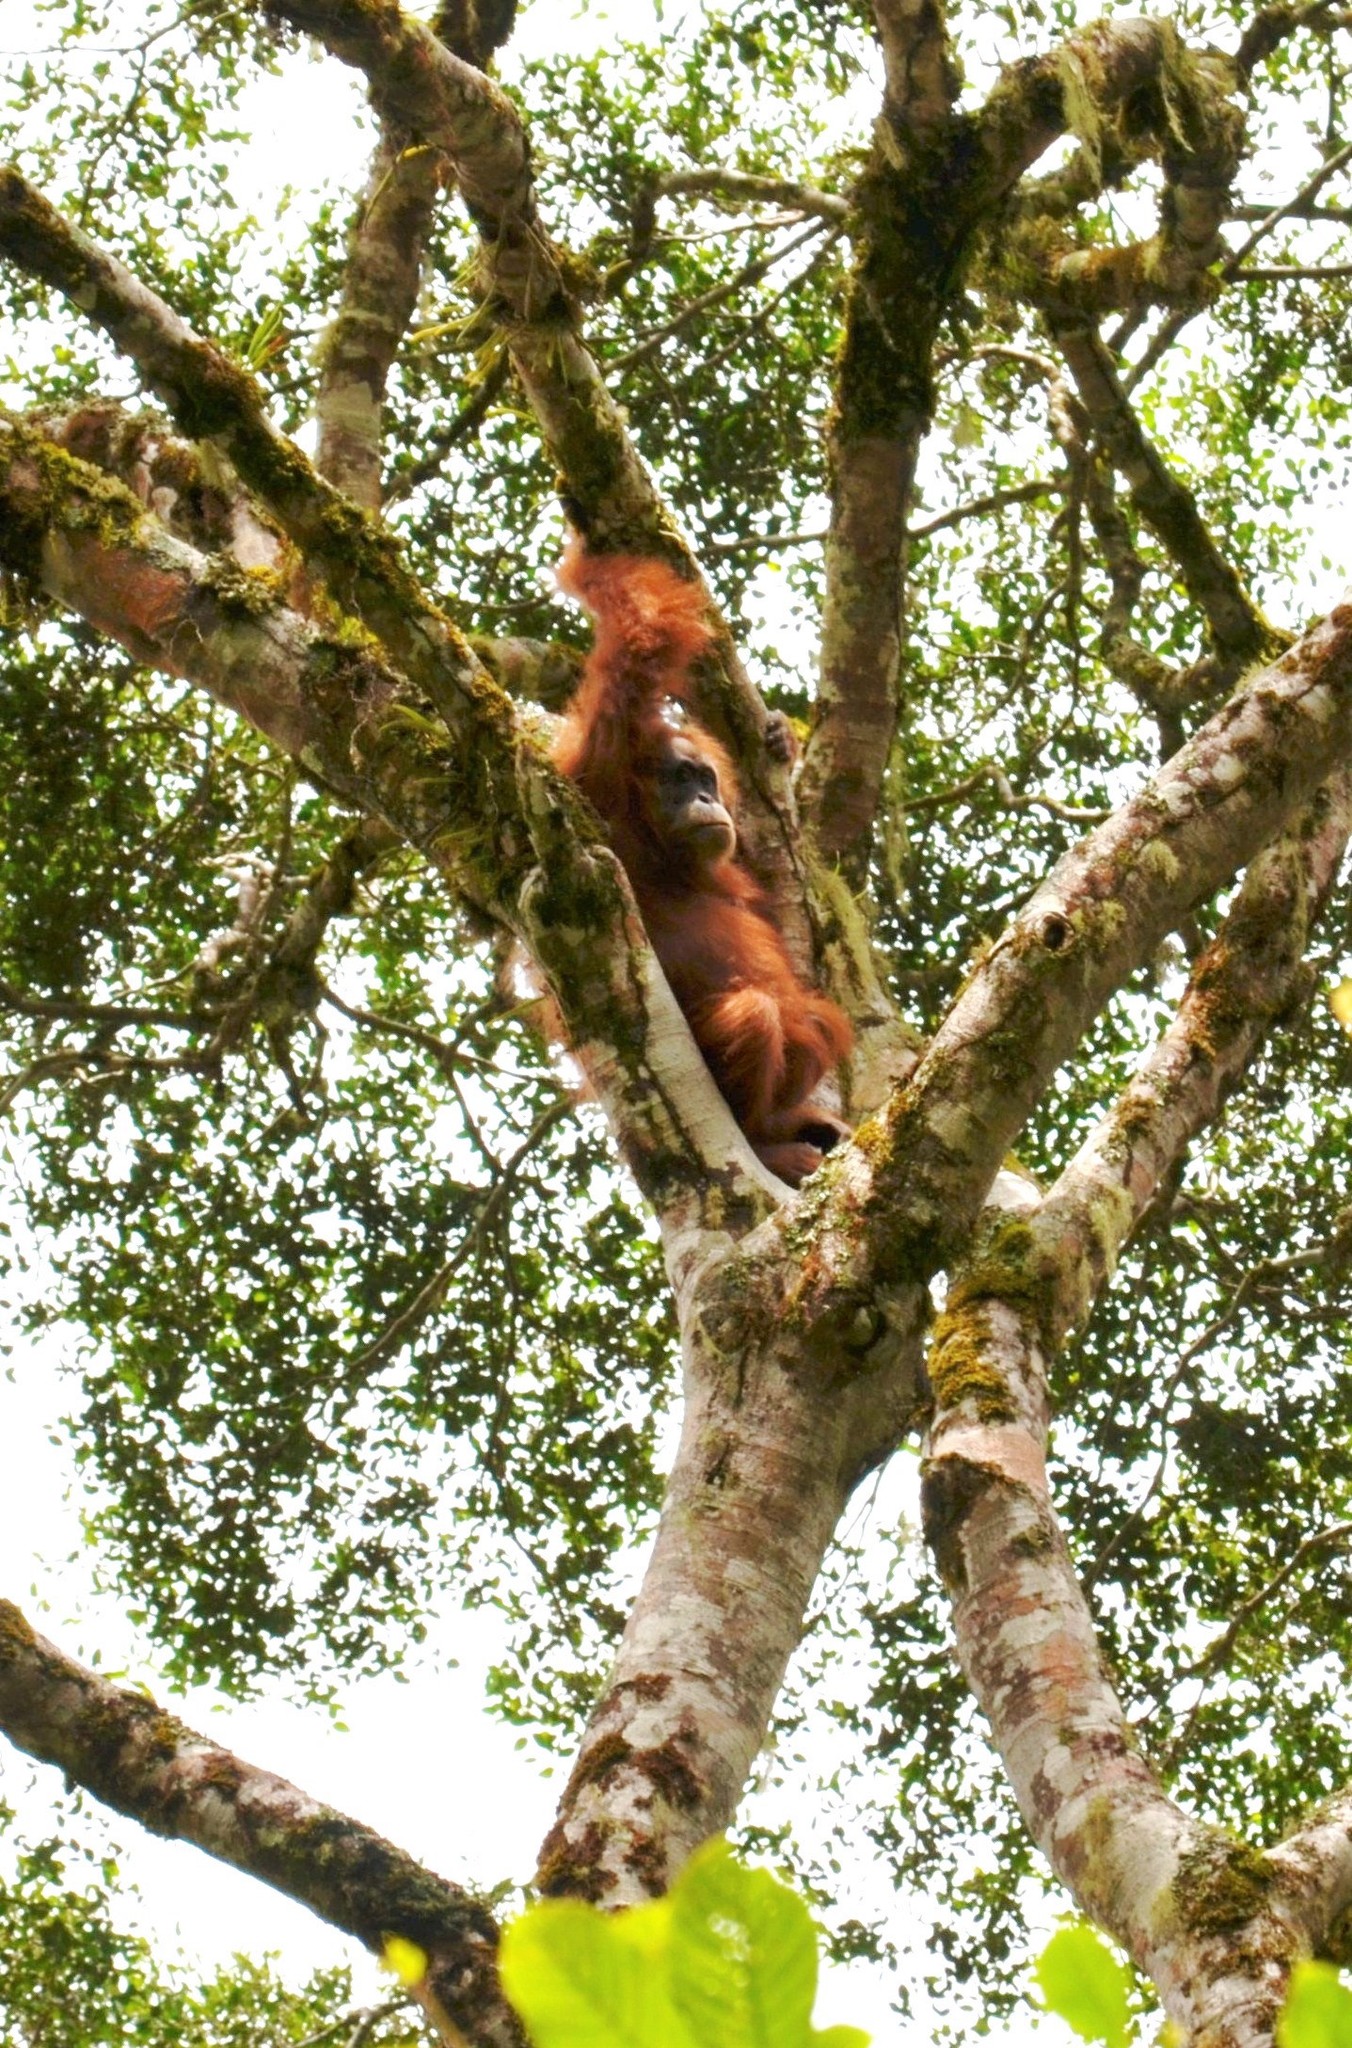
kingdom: Animalia
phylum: Chordata
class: Mammalia
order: Primates
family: Hominidae
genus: Pongo
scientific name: Pongo abelii
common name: Sumatran orangutan
